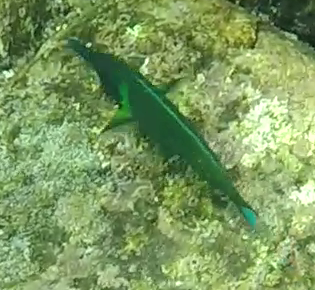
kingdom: Animalia
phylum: Chordata
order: Perciformes
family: Labridae
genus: Gomphosus
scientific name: Gomphosus varius
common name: Bird wrasse
